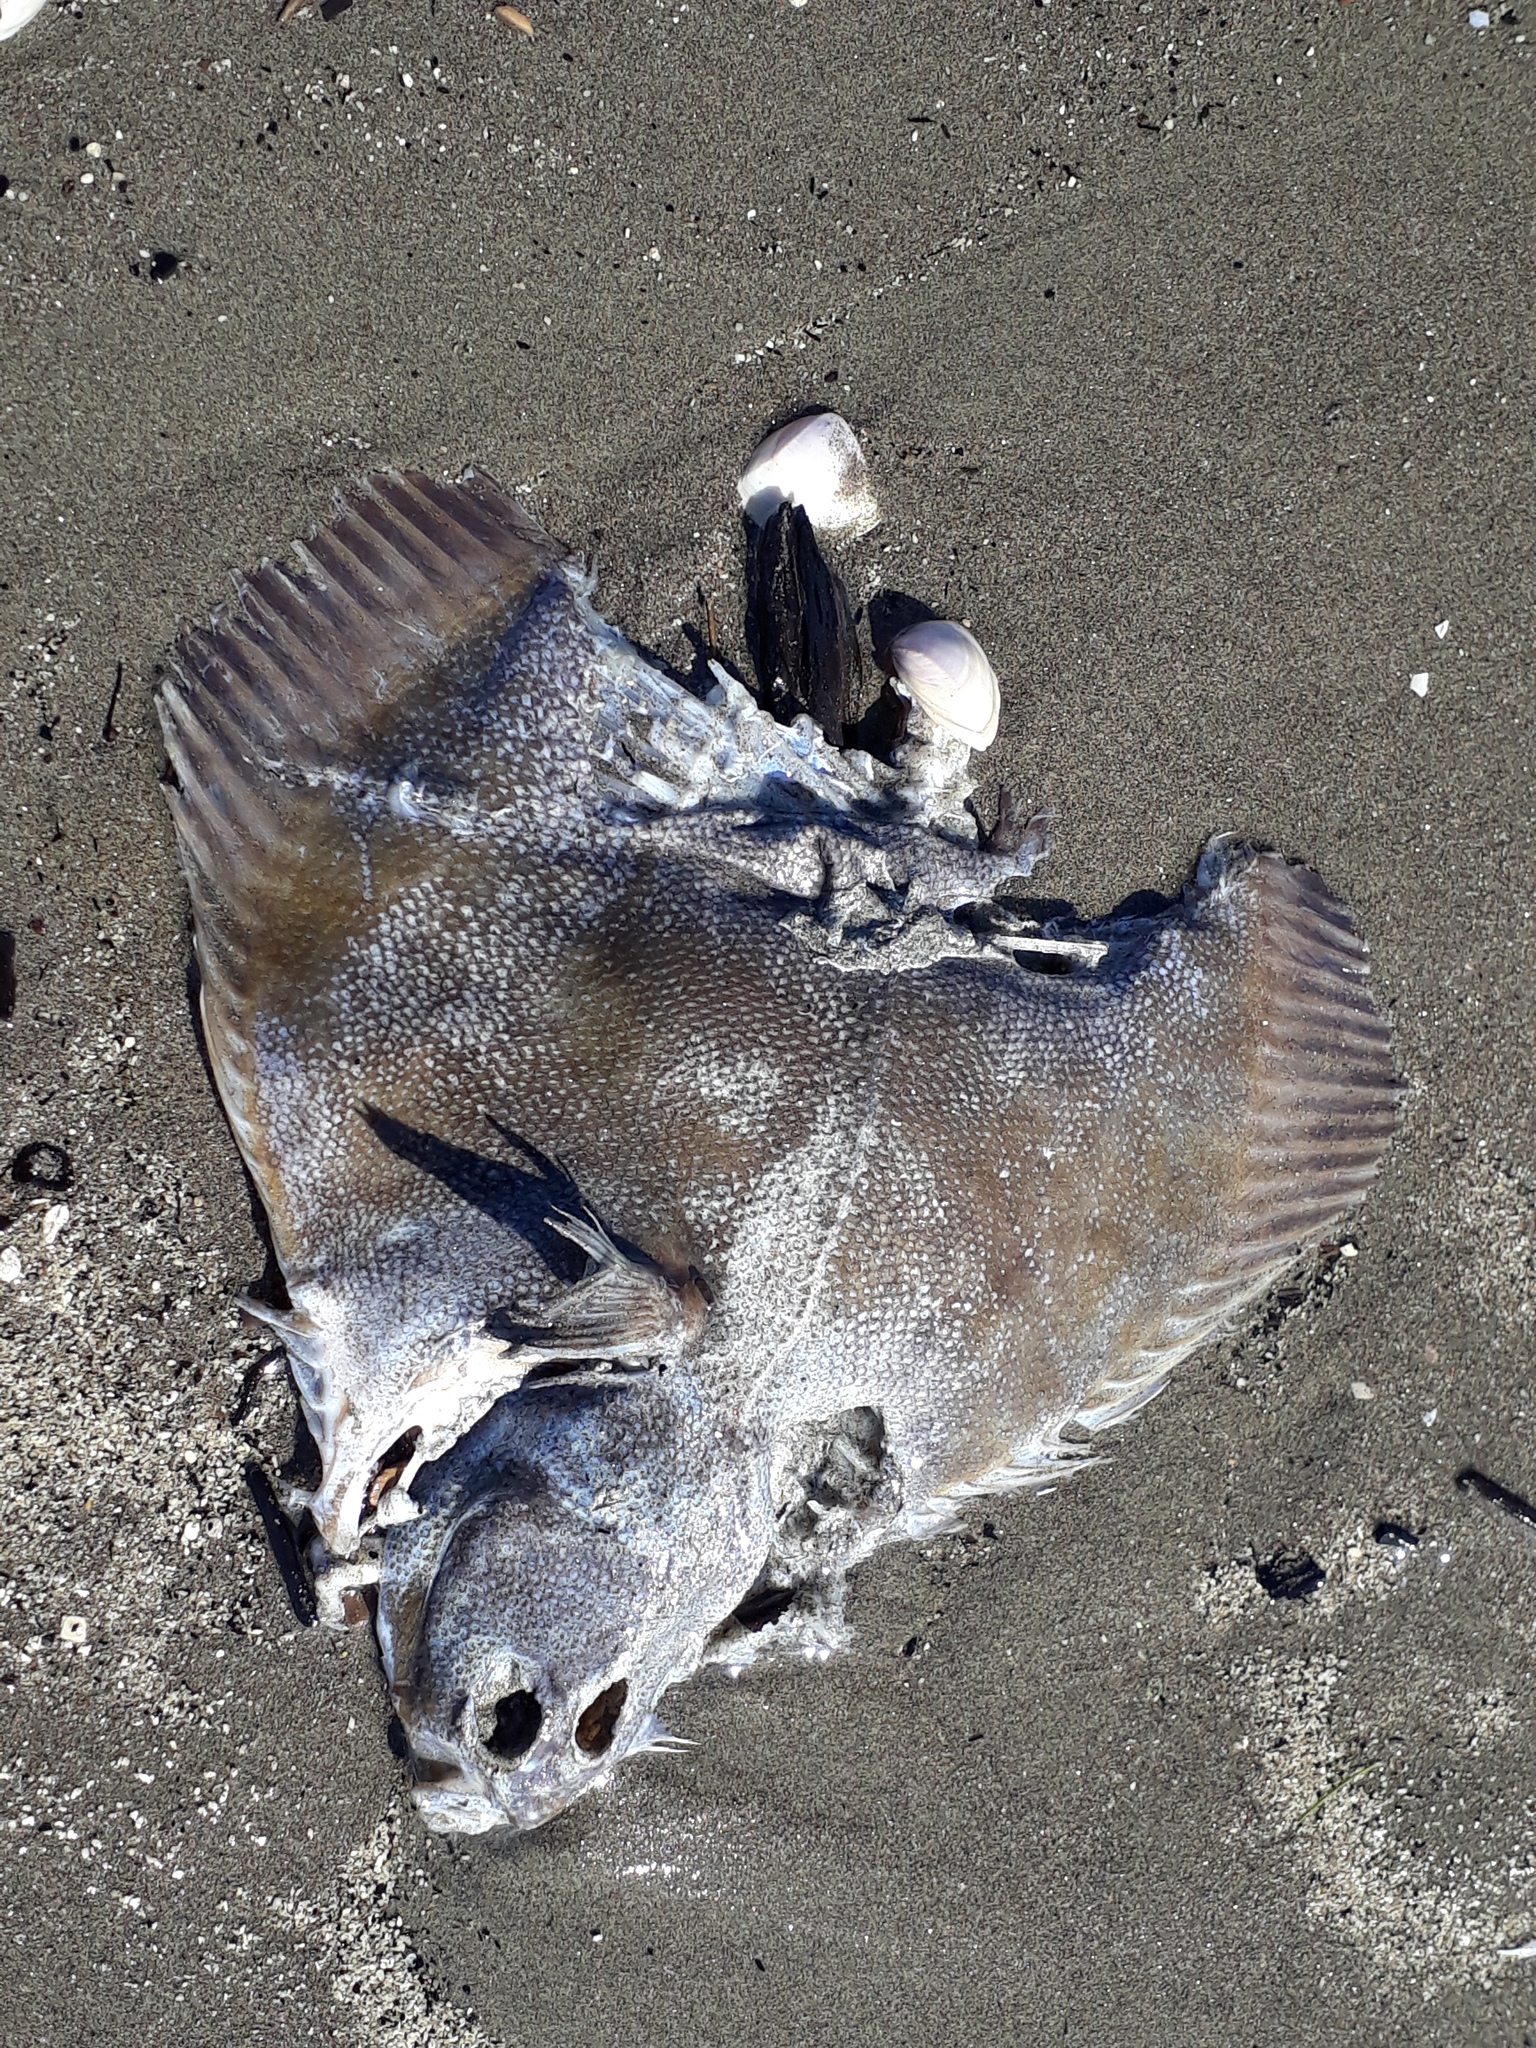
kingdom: Animalia
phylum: Chordata
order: Pleuronectiformes
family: Pleuronectidae
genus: Rhombosolea
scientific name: Rhombosolea plebeia
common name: Dab
